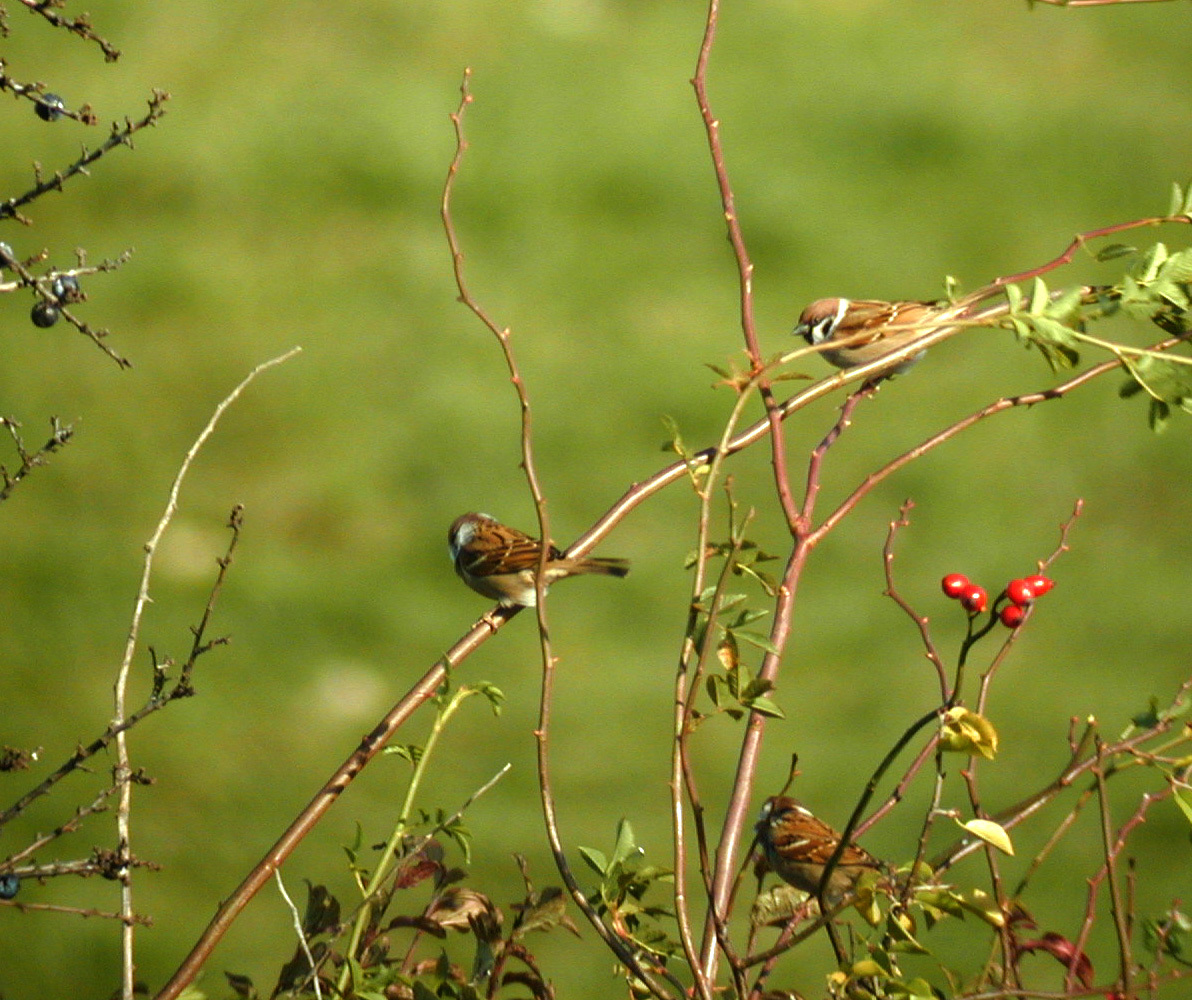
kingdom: Animalia
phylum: Chordata
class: Aves
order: Passeriformes
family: Passeridae
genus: Passer
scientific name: Passer montanus
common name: Eurasian tree sparrow
